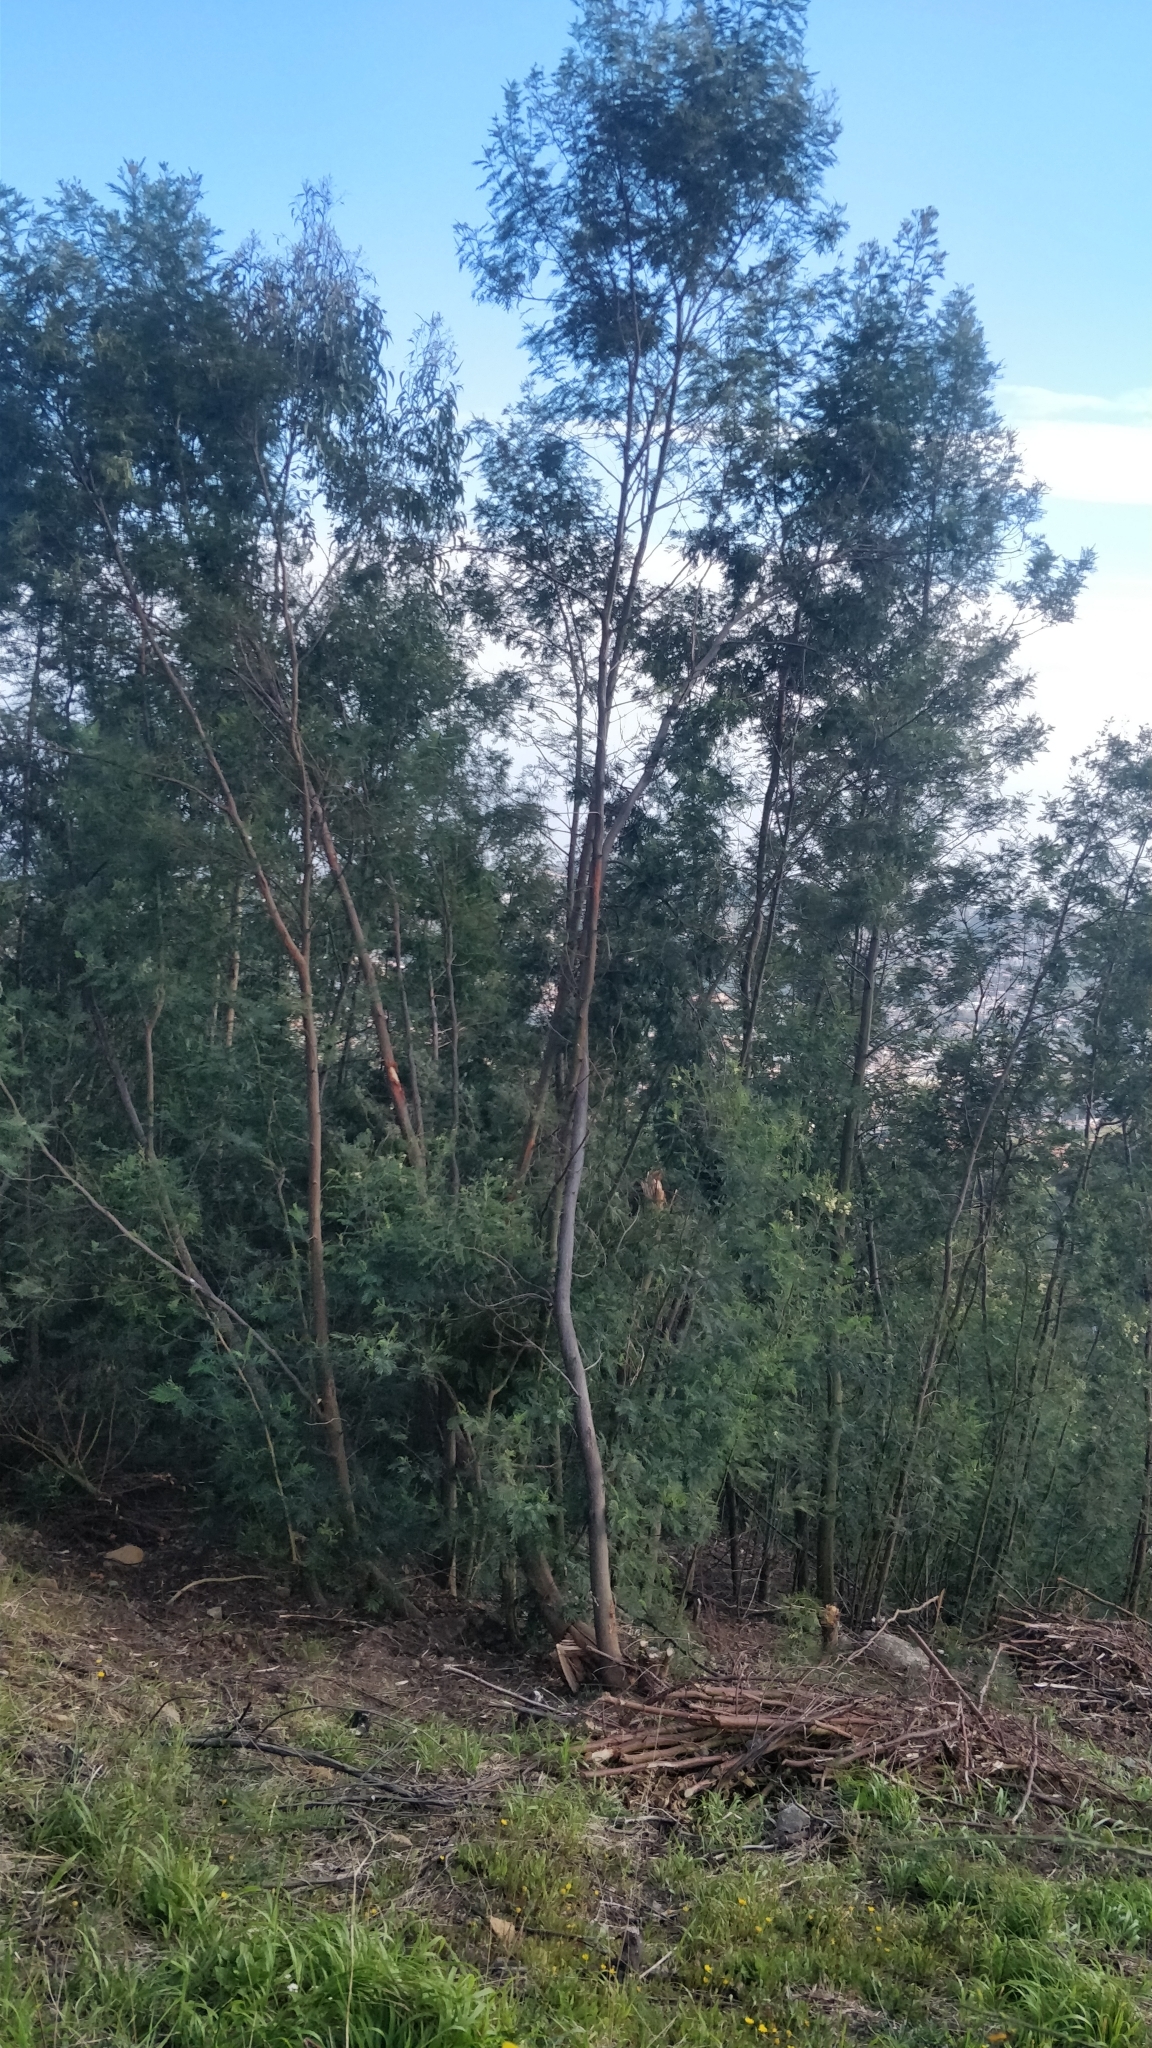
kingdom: Plantae
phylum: Tracheophyta
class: Magnoliopsida
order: Fabales
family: Fabaceae
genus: Acacia
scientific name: Acacia mearnsii
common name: Black wattle
